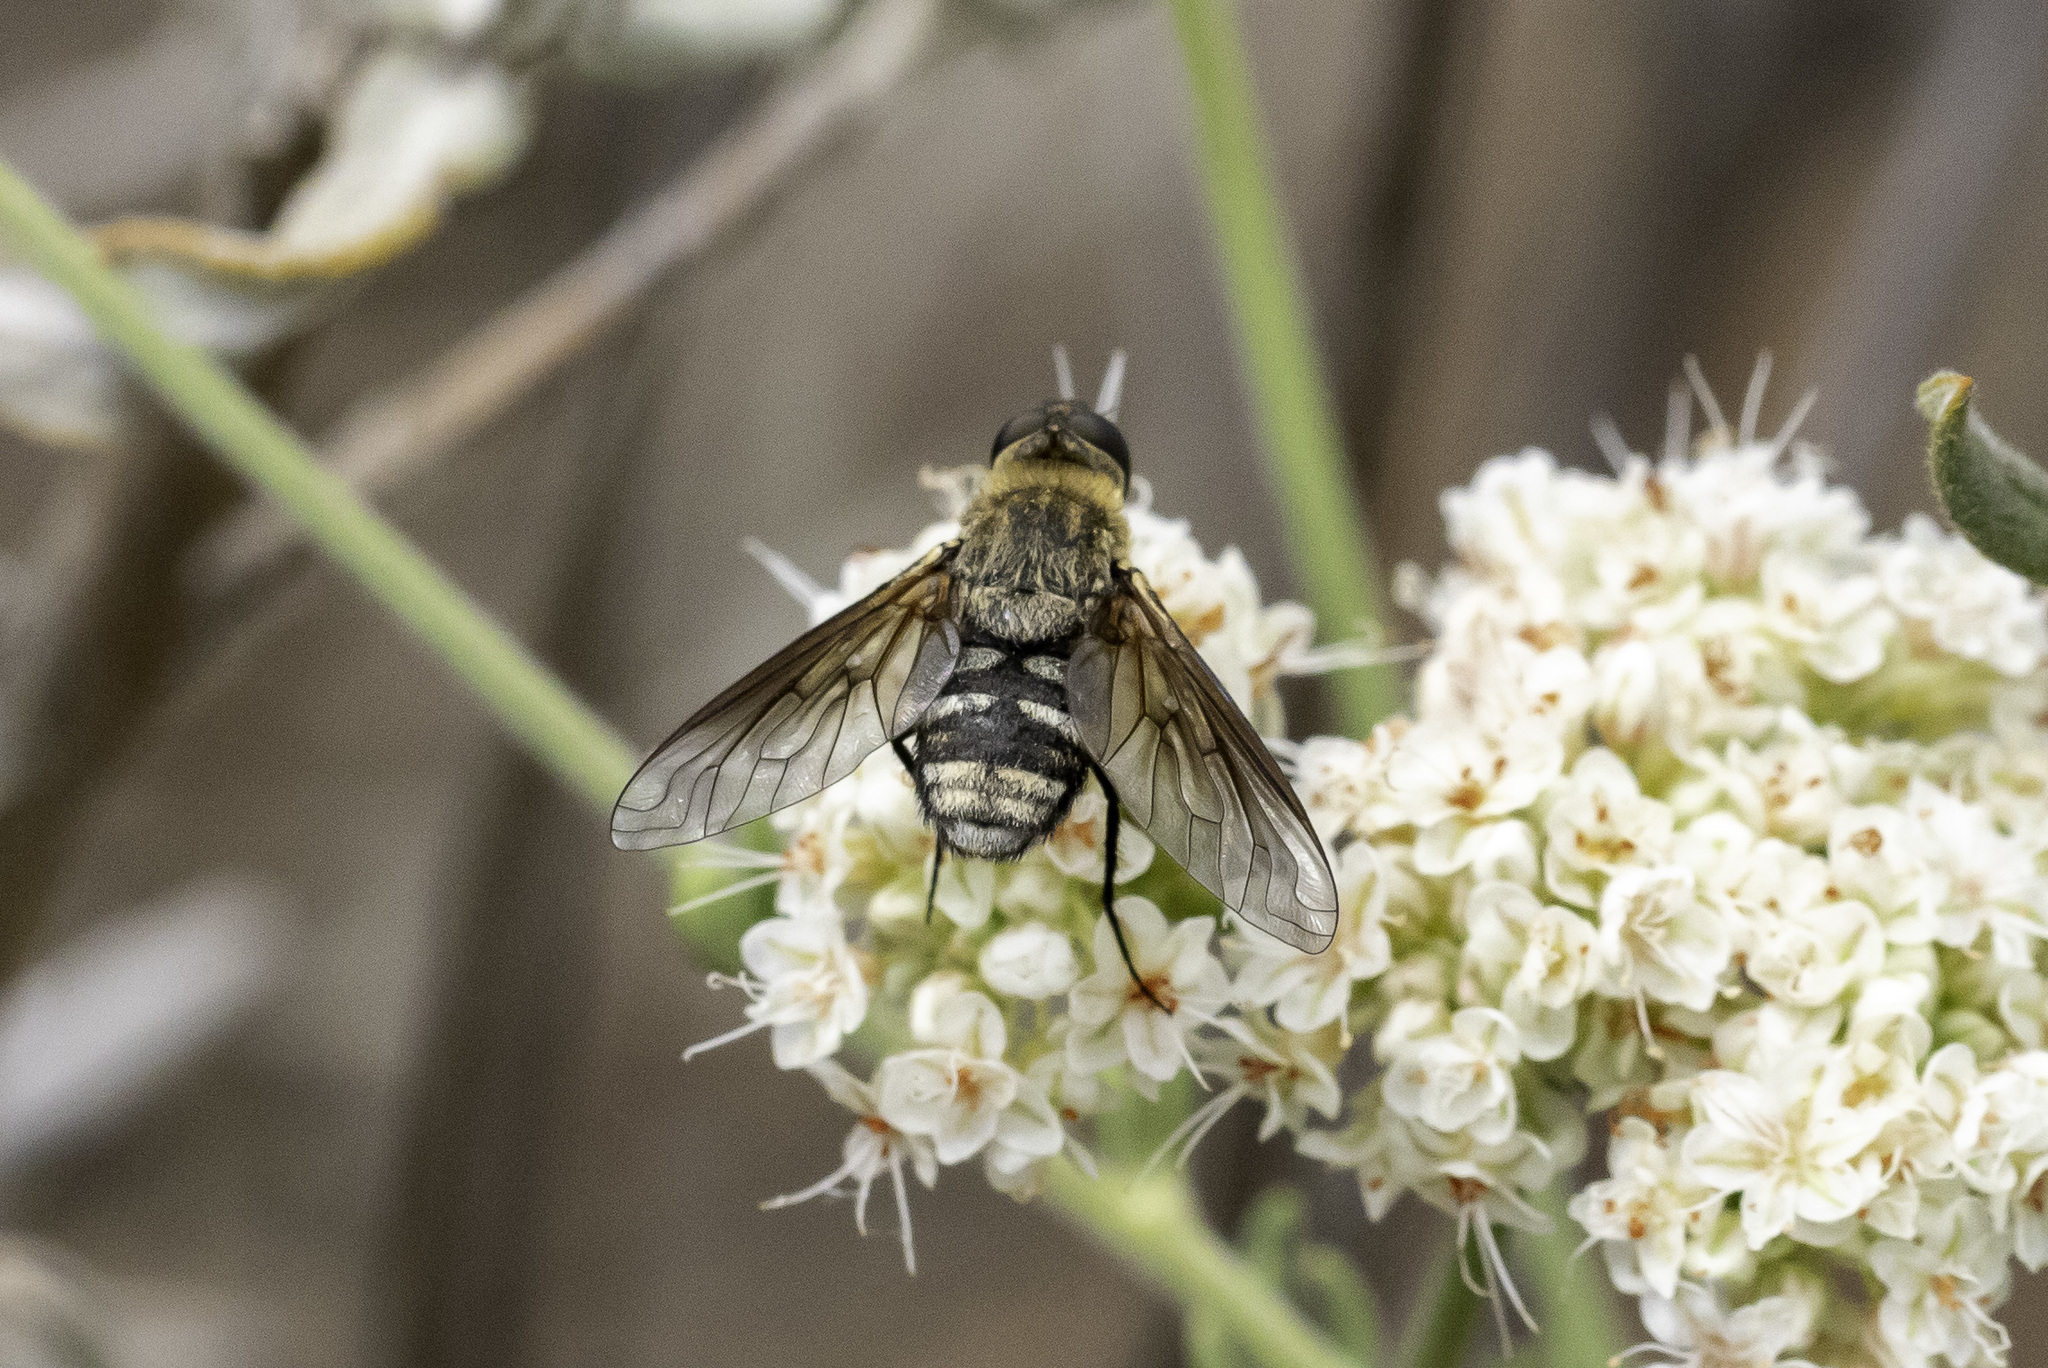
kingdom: Animalia
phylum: Arthropoda
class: Insecta
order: Diptera
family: Bombyliidae
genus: Chrysanthrax
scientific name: Chrysanthrax vanus
